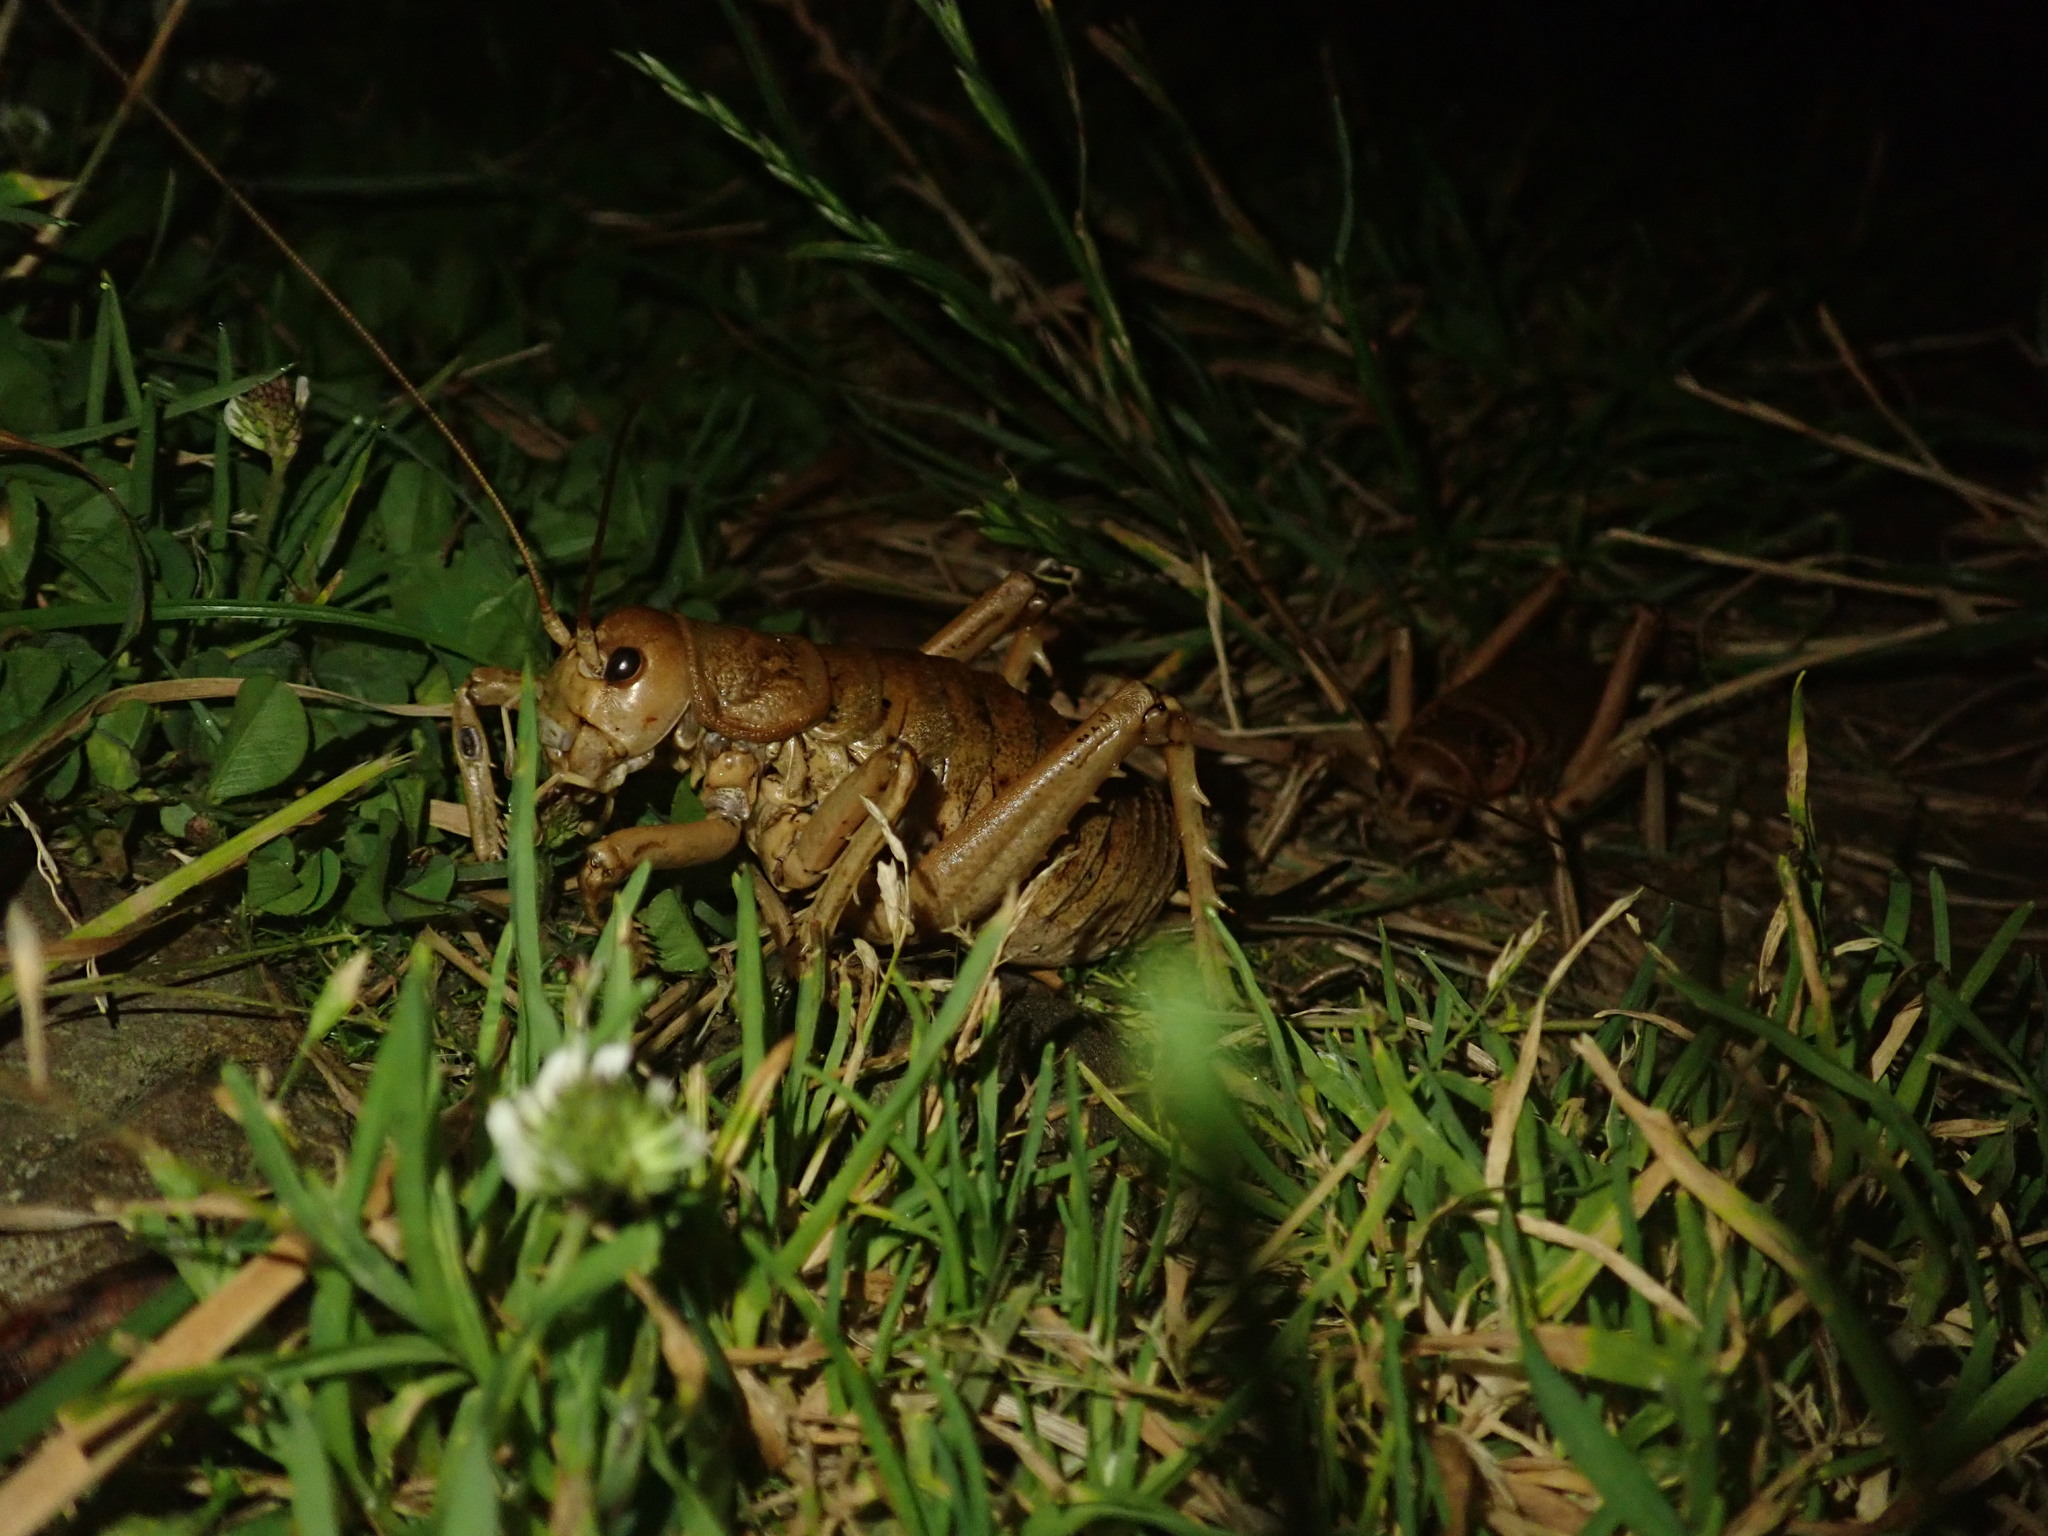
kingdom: Animalia
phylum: Arthropoda
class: Insecta
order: Orthoptera
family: Anostostomatidae
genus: Deinacrida
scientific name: Deinacrida rugosa
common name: Stephens island weta
